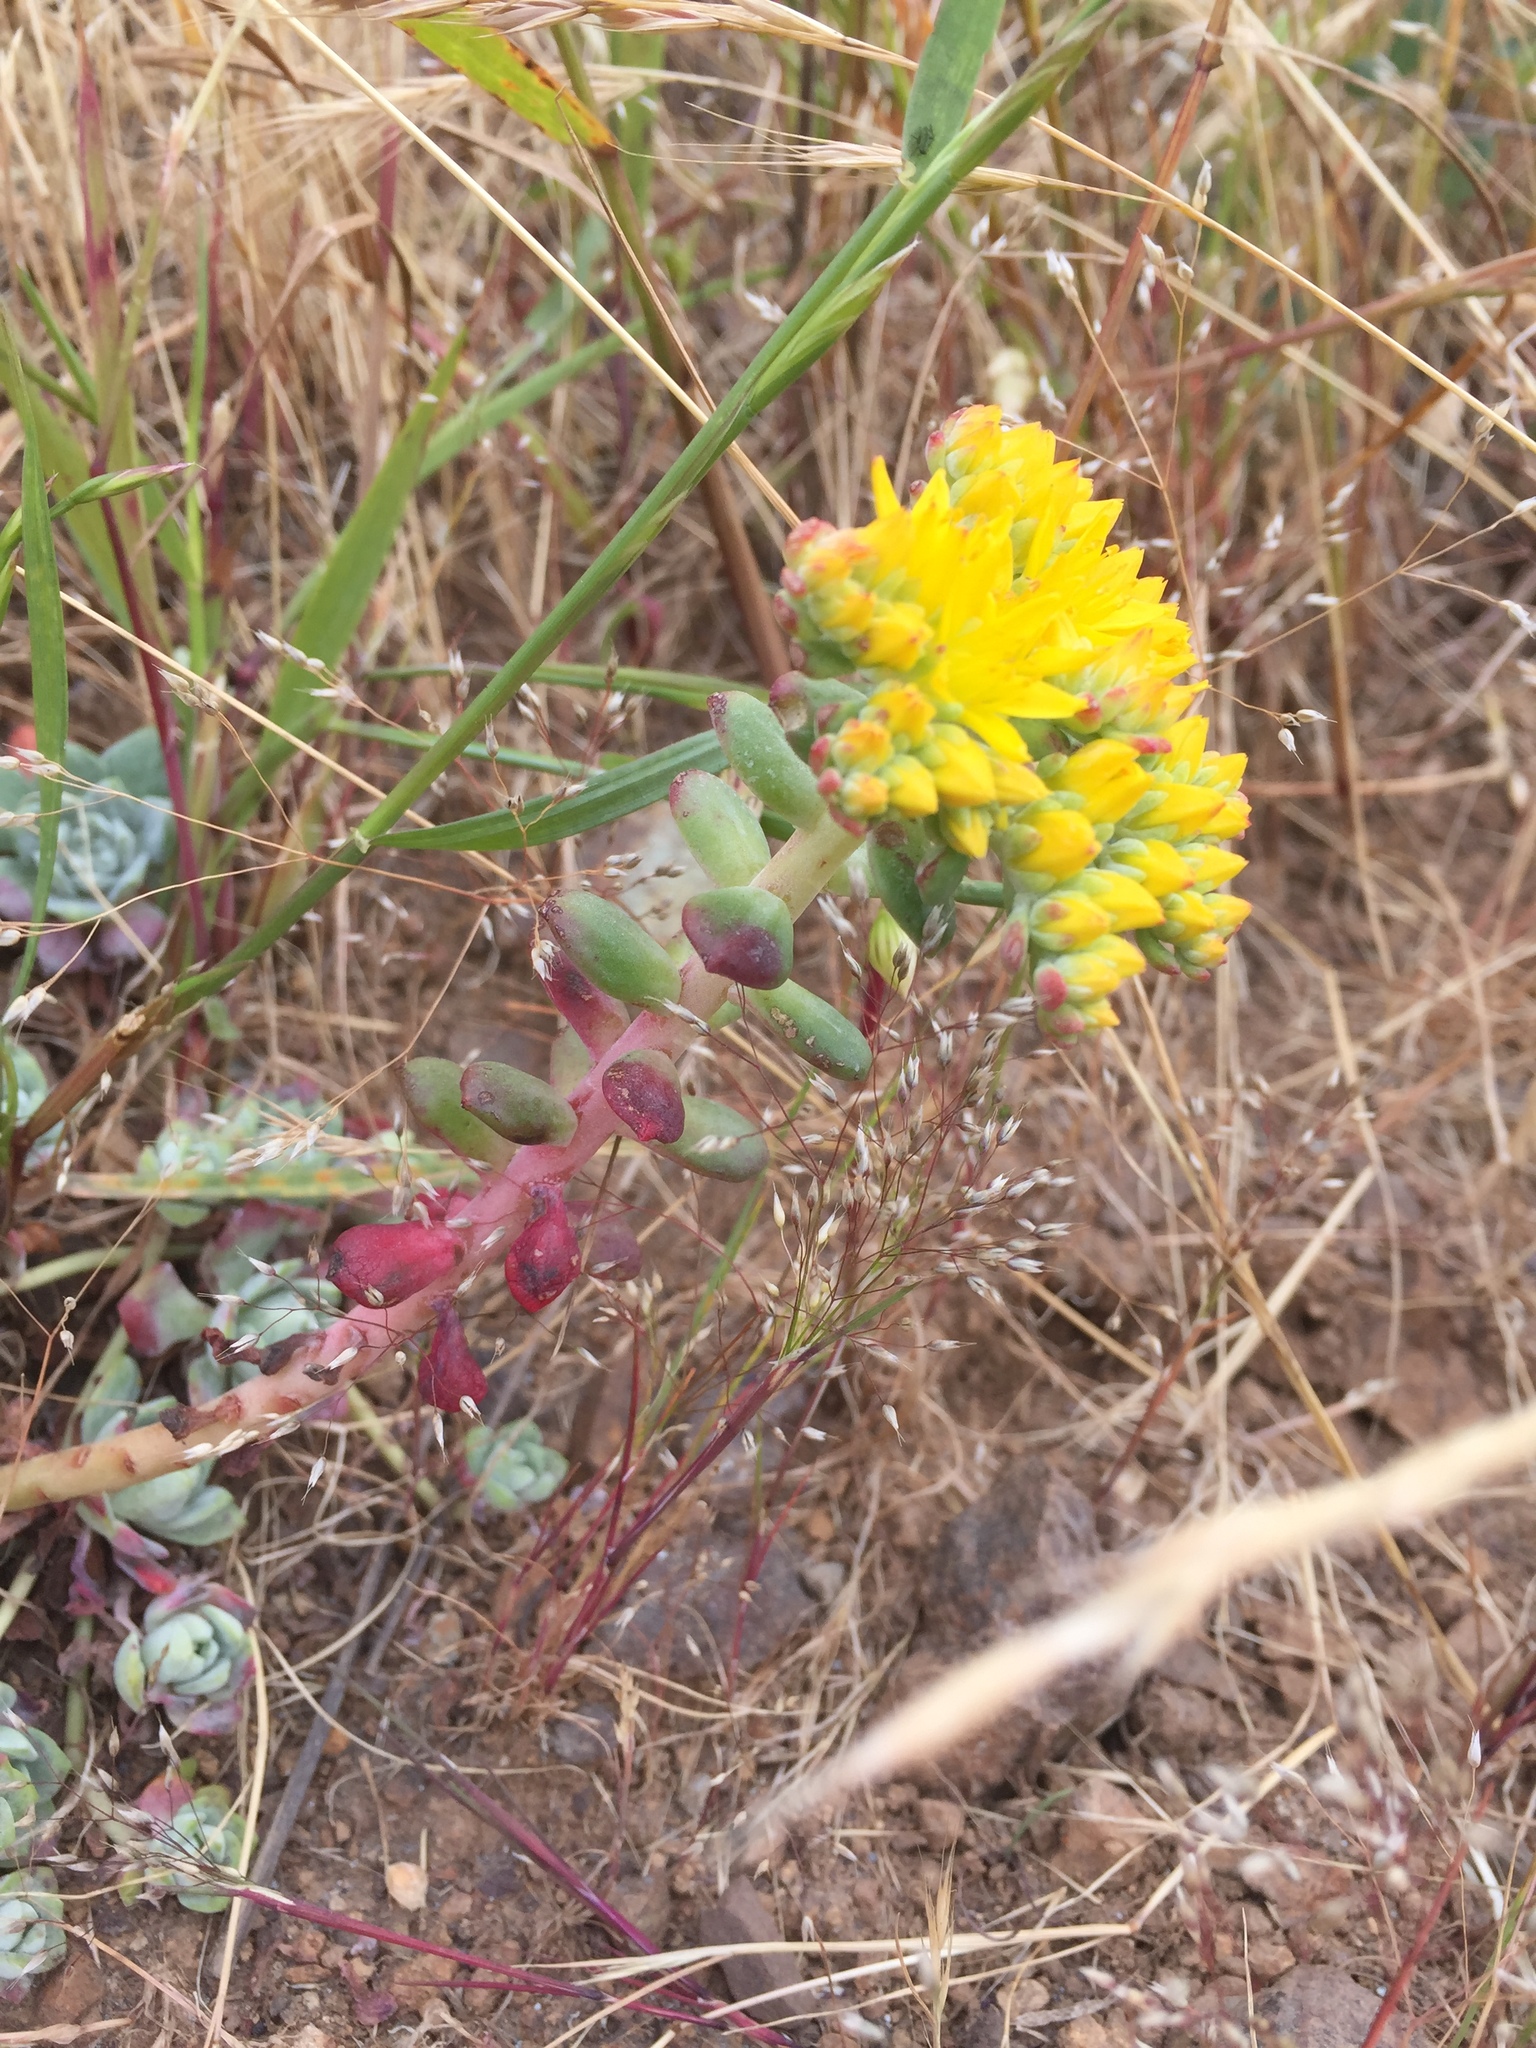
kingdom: Plantae
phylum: Tracheophyta
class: Magnoliopsida
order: Saxifragales
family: Crassulaceae
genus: Sedum
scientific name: Sedum spathulifolium
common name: Colorado stonecrop
